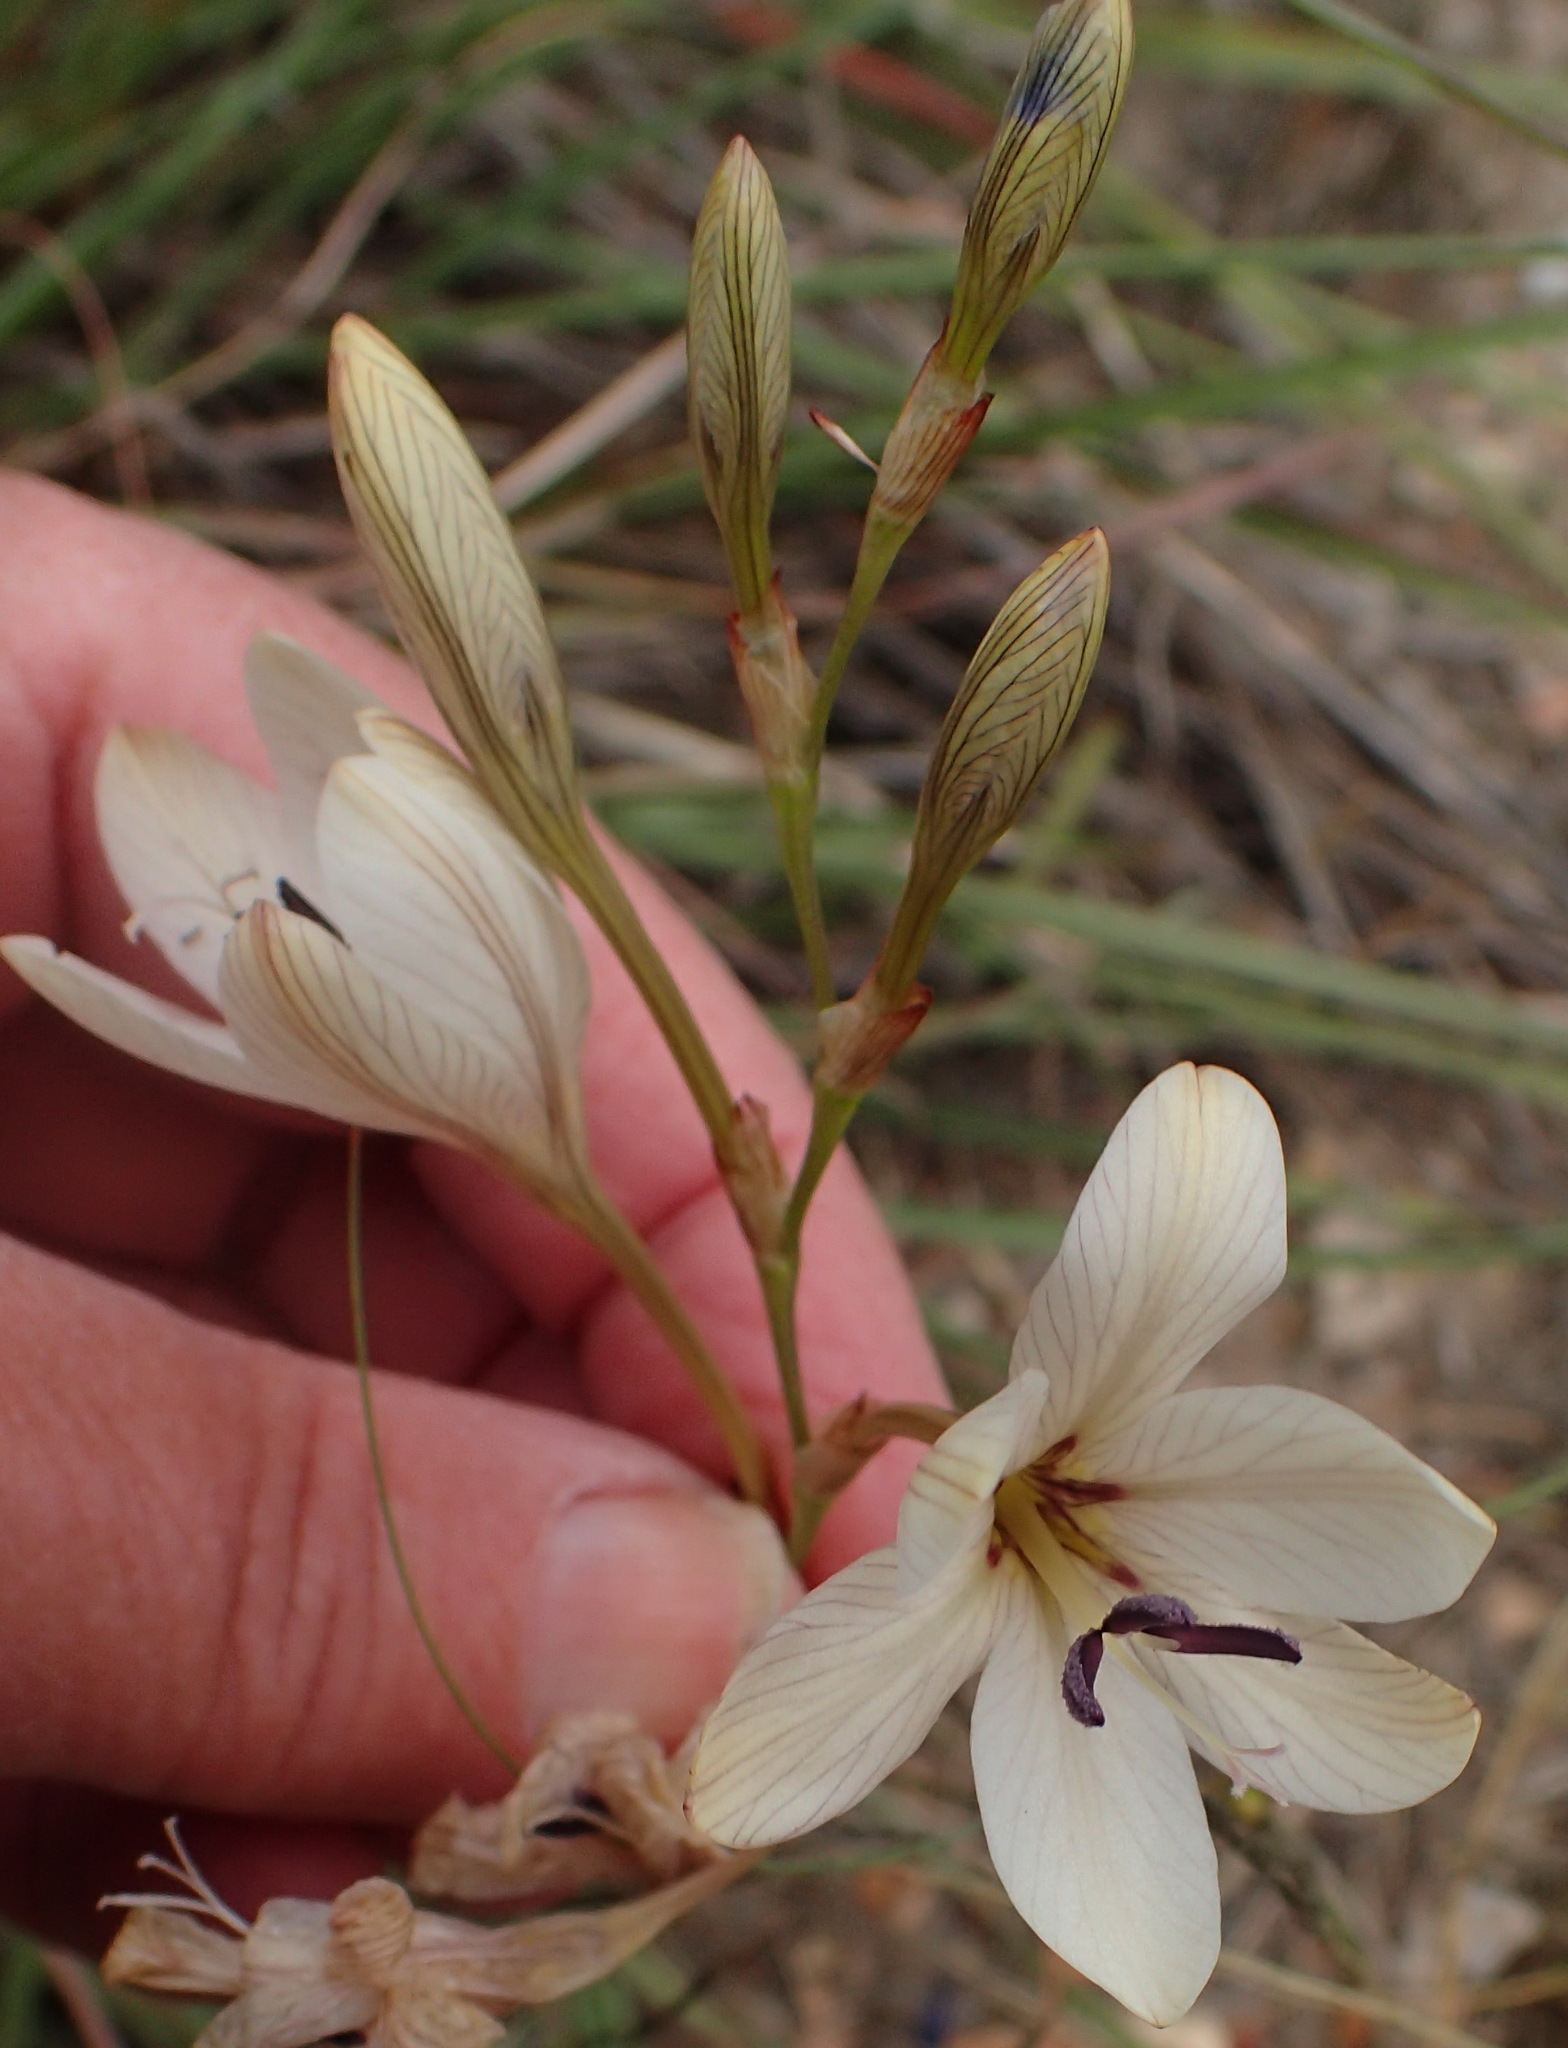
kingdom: Plantae
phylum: Tracheophyta
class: Liliopsida
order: Asparagales
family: Iridaceae
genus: Tritonia
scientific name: Tritonia bakeri
